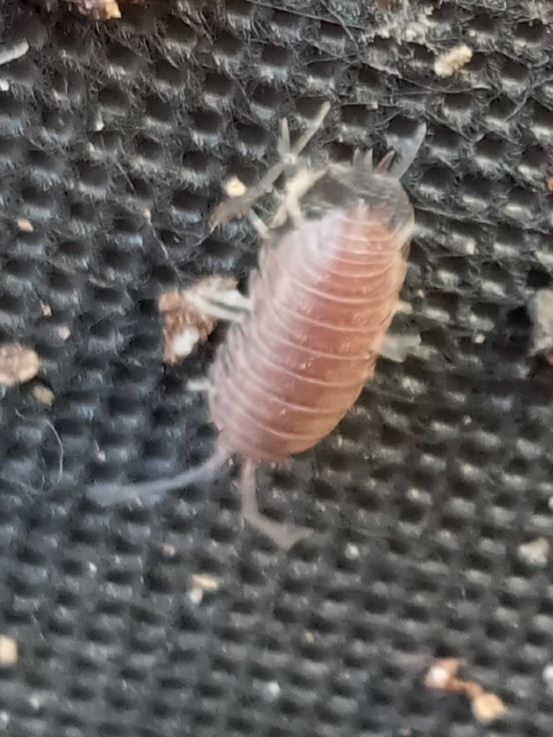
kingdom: Animalia
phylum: Arthropoda
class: Malacostraca
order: Isopoda
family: Cylisticidae
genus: Cylisticus
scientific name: Cylisticus convexus
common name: Curly woodlouse
